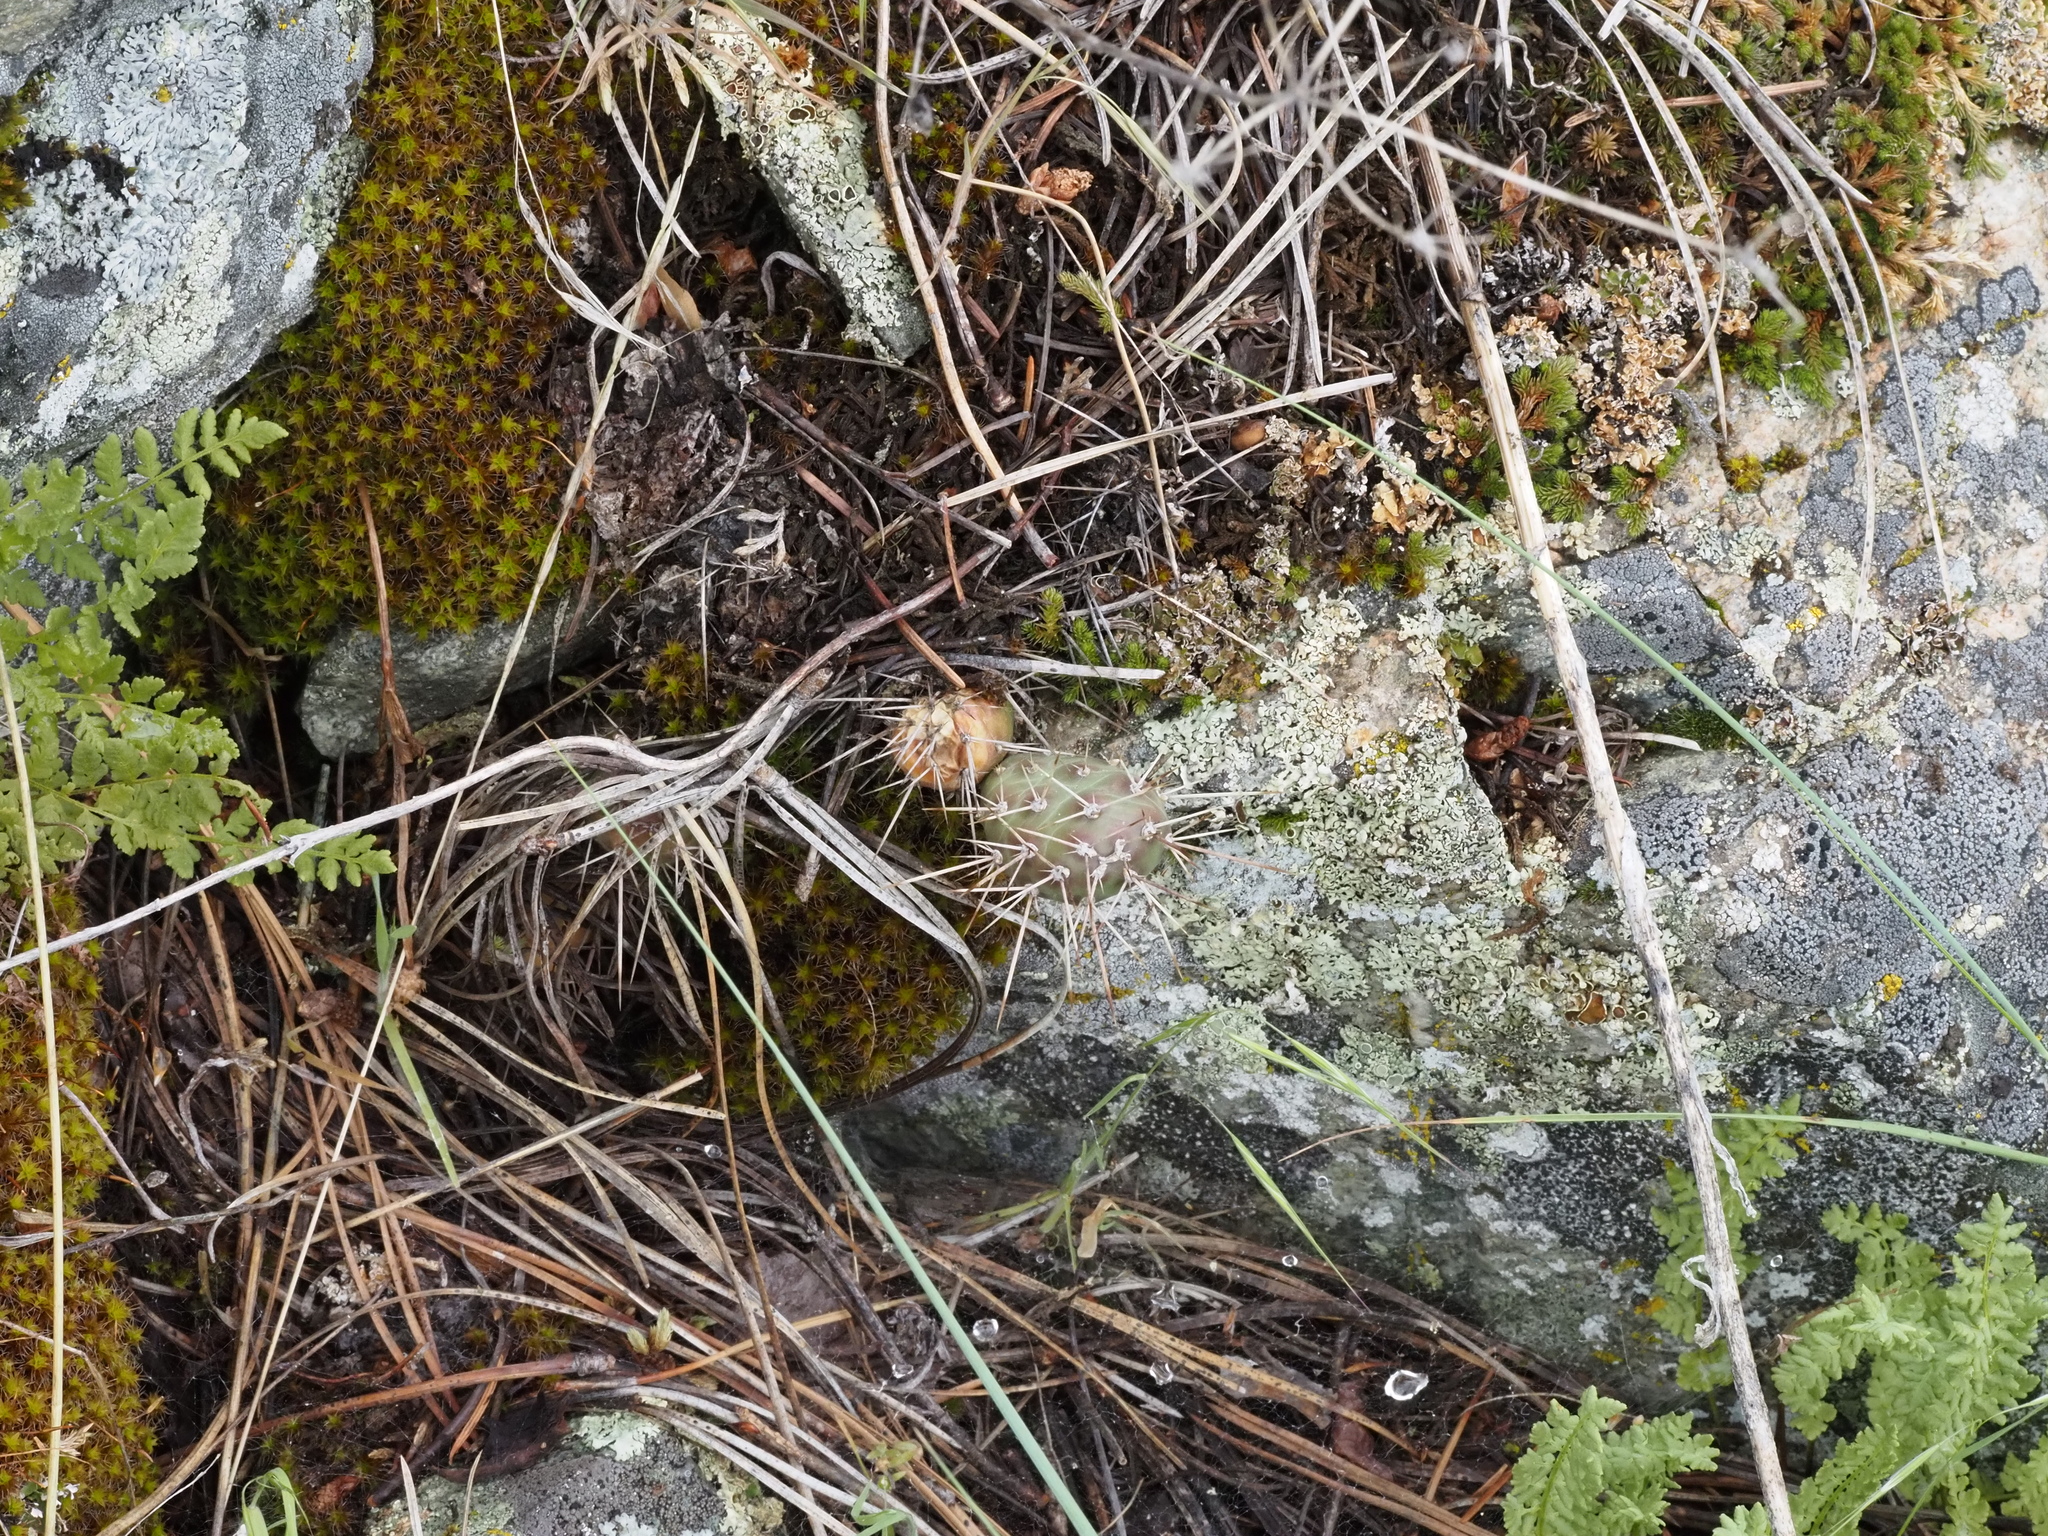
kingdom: Plantae
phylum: Tracheophyta
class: Magnoliopsida
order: Caryophyllales
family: Cactaceae
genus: Opuntia
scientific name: Opuntia fragilis
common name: Brittle cactus
